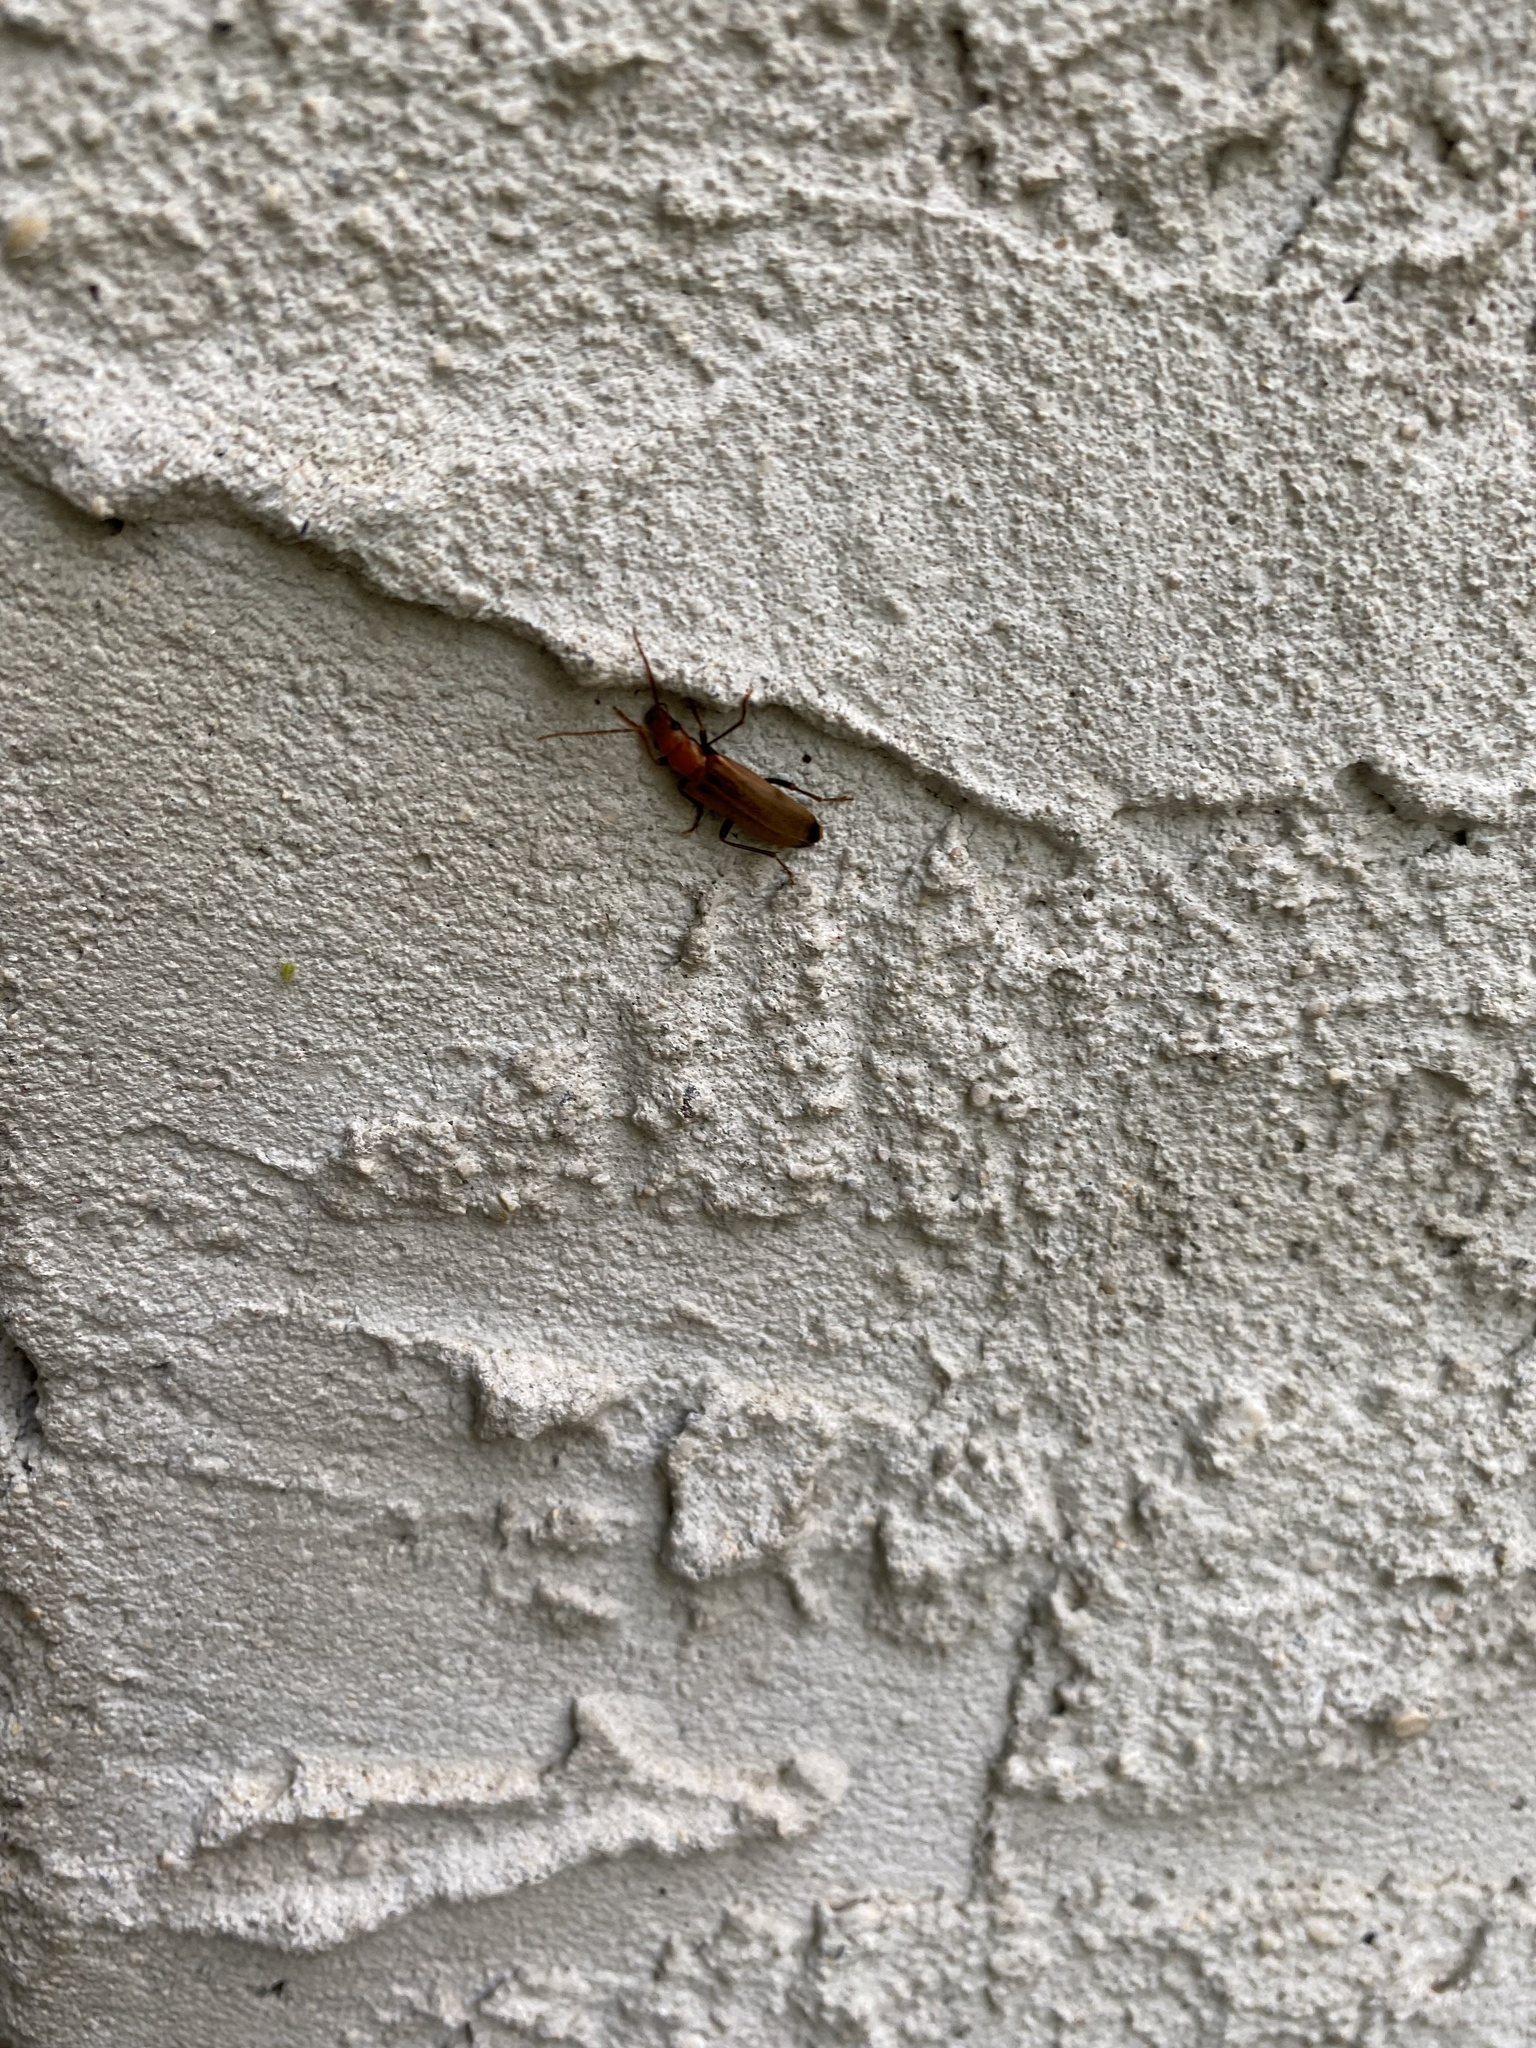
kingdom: Animalia
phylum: Arthropoda
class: Insecta
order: Coleoptera
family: Oedemeridae
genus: Nacerdes
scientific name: Nacerdes melanura
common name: Wharf borer
